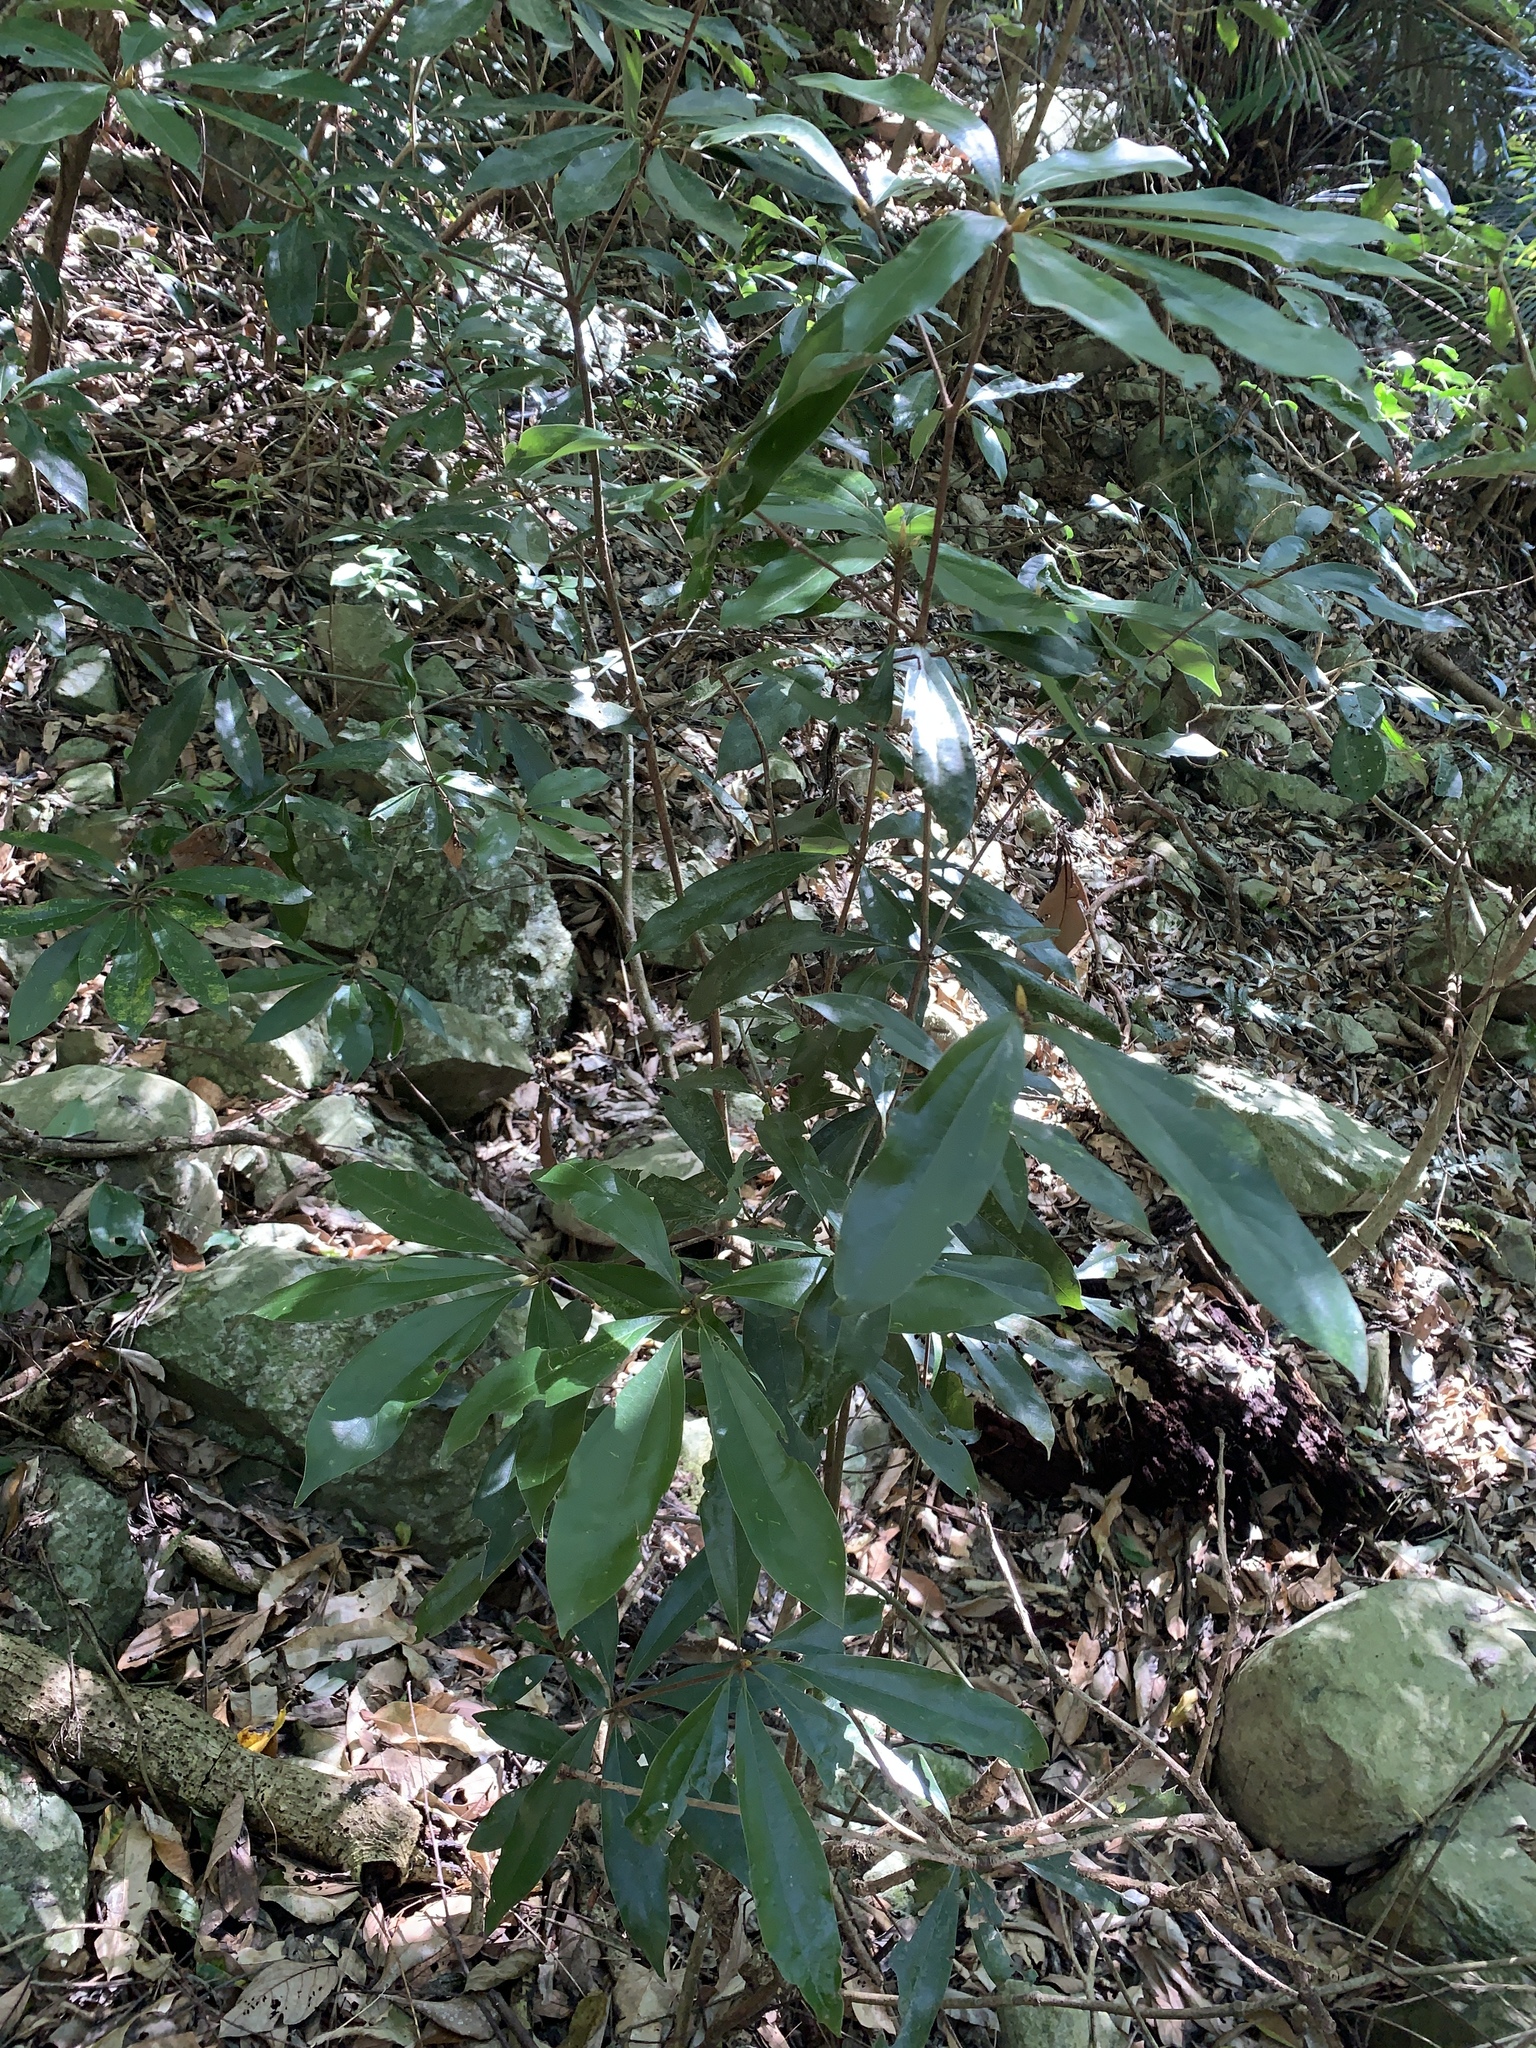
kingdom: Plantae
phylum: Tracheophyta
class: Magnoliopsida
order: Laurales
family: Lauraceae
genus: Neolitsea
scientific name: Neolitsea konishii
